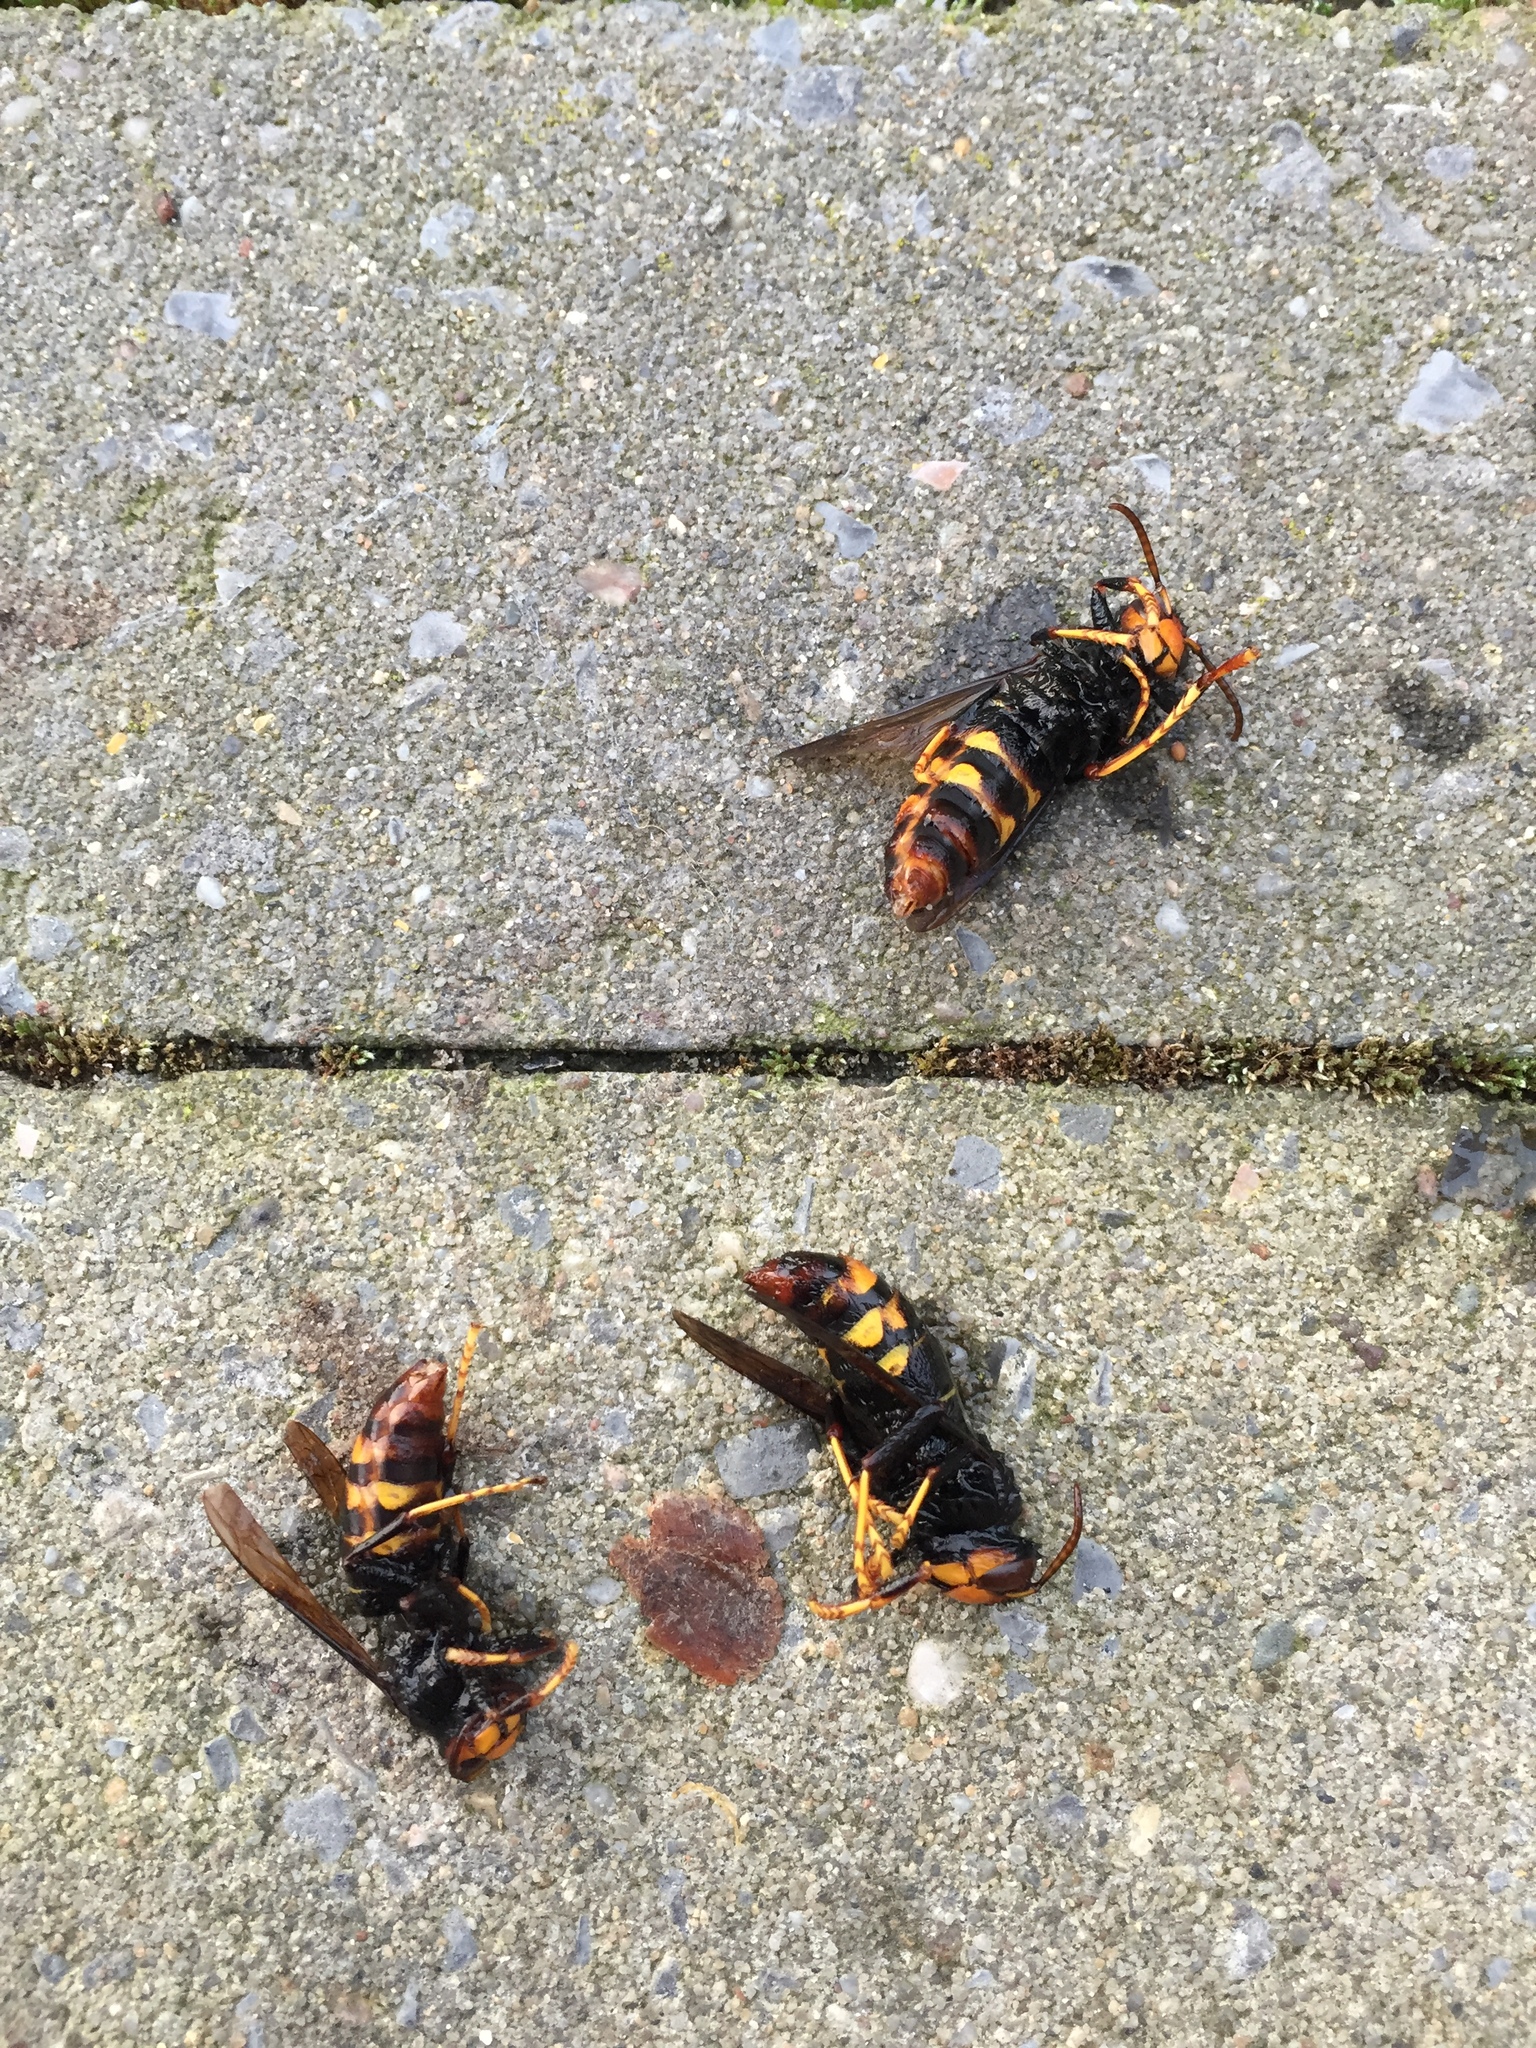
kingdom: Animalia
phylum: Arthropoda
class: Insecta
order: Hymenoptera
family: Vespidae
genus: Vespa
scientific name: Vespa velutina
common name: Asian hornet
